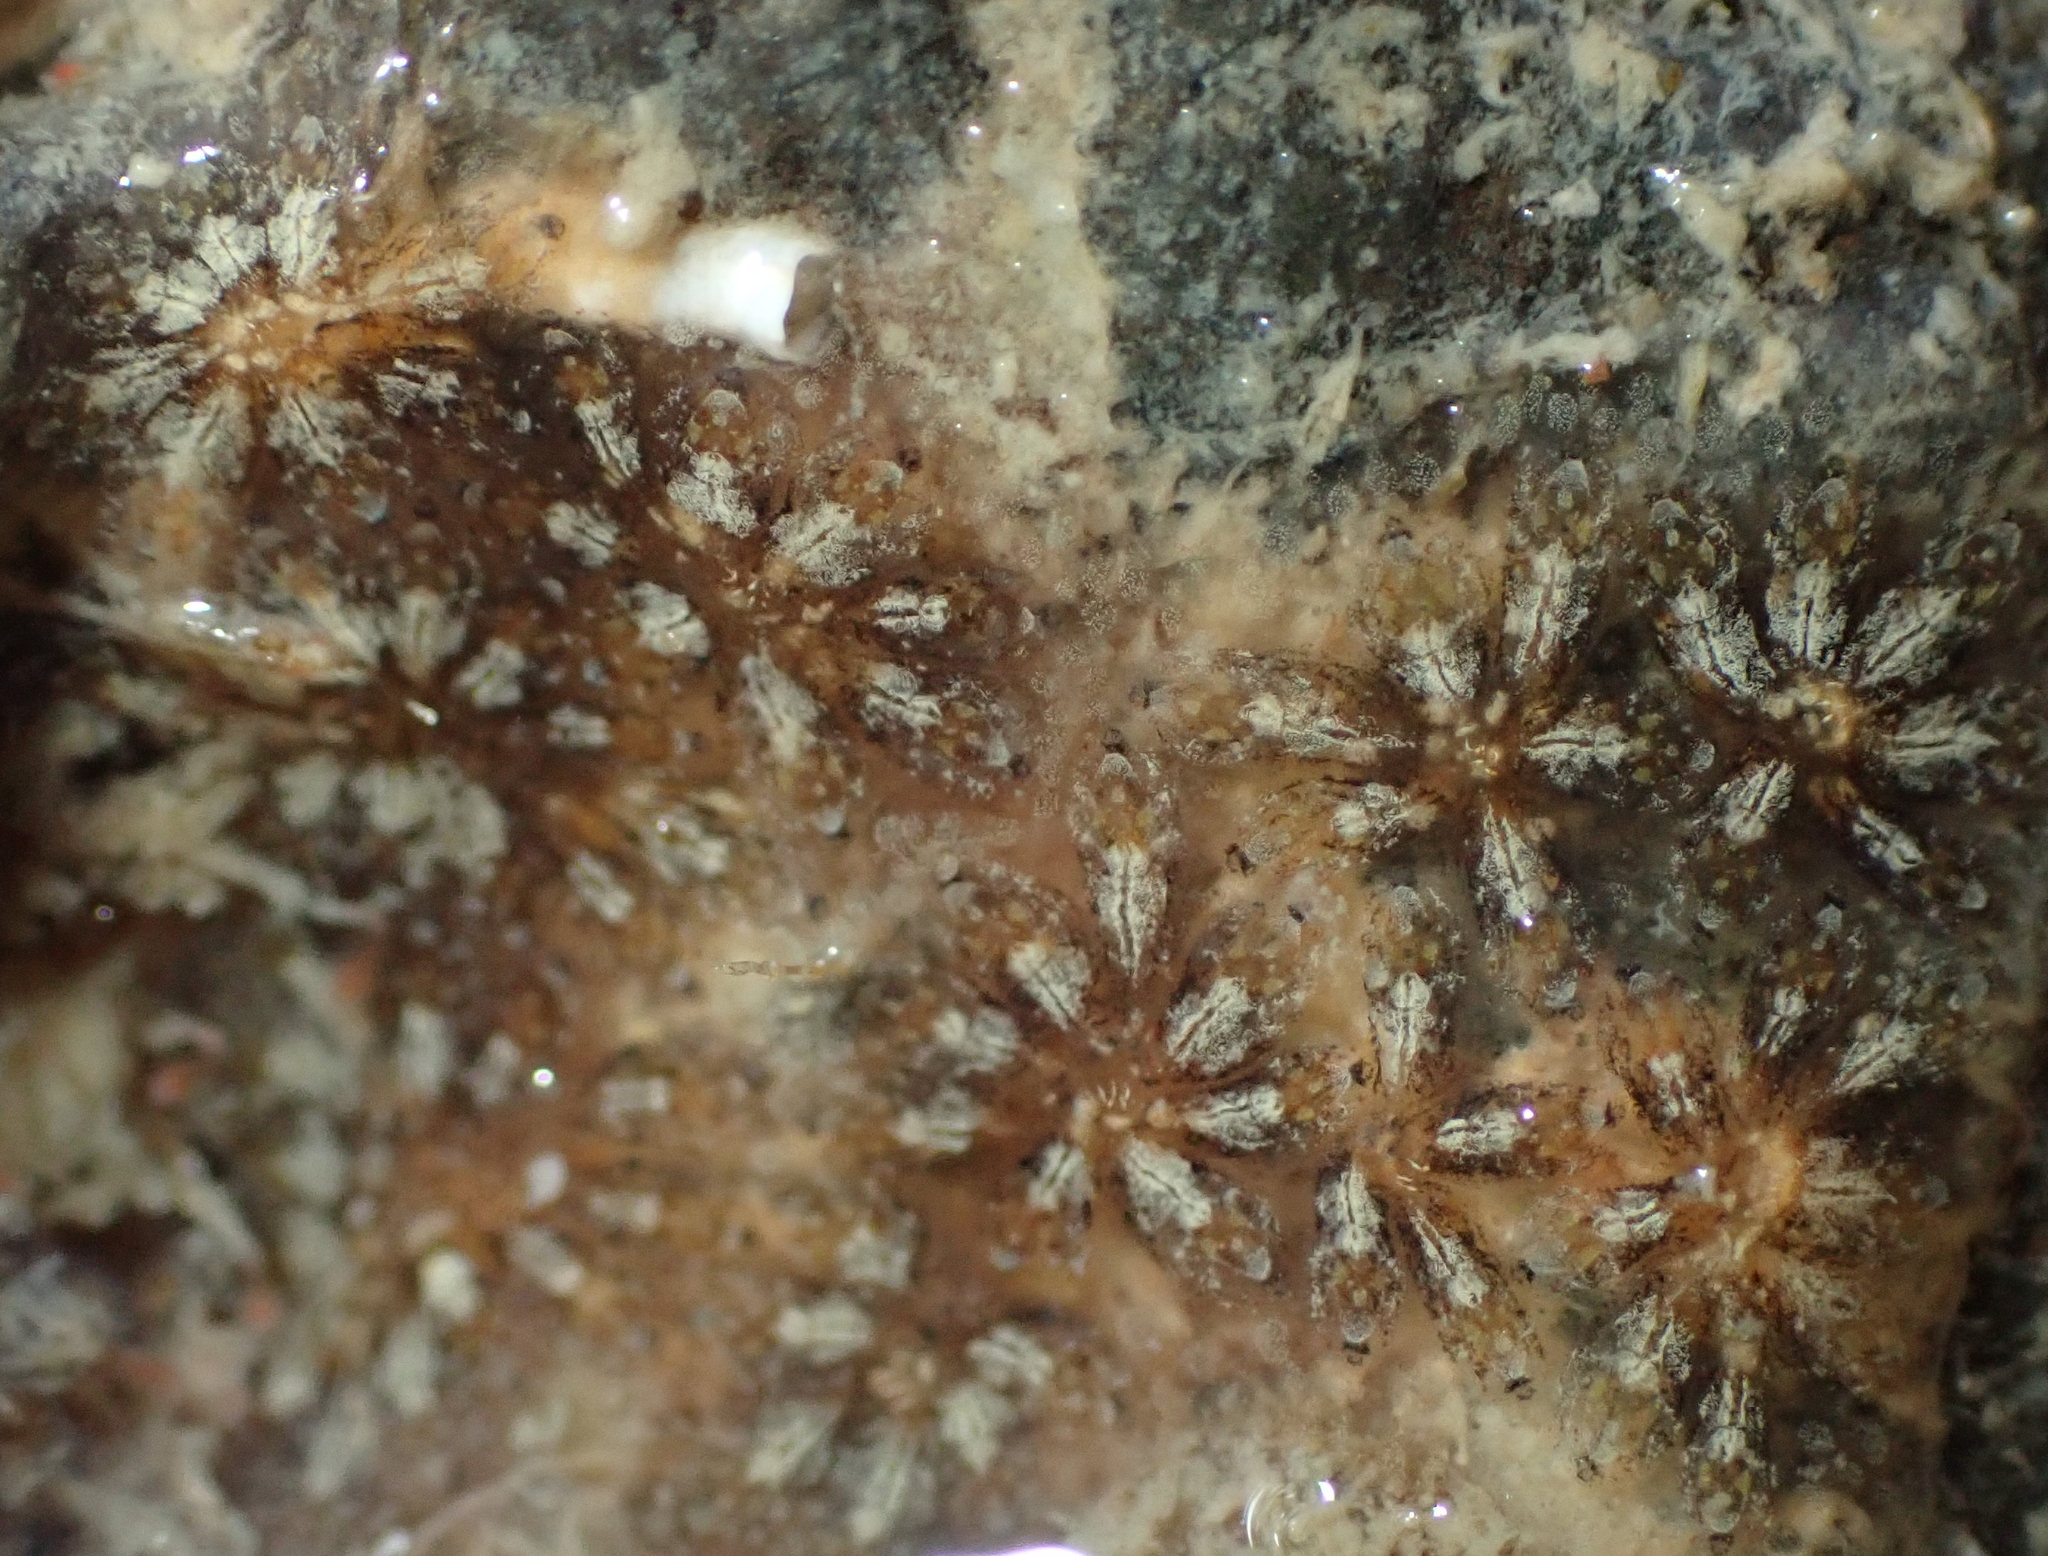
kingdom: Animalia
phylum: Chordata
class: Ascidiacea
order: Stolidobranchia
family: Styelidae
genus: Botryllus
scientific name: Botryllus schlosseri
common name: Golden star tunicate
